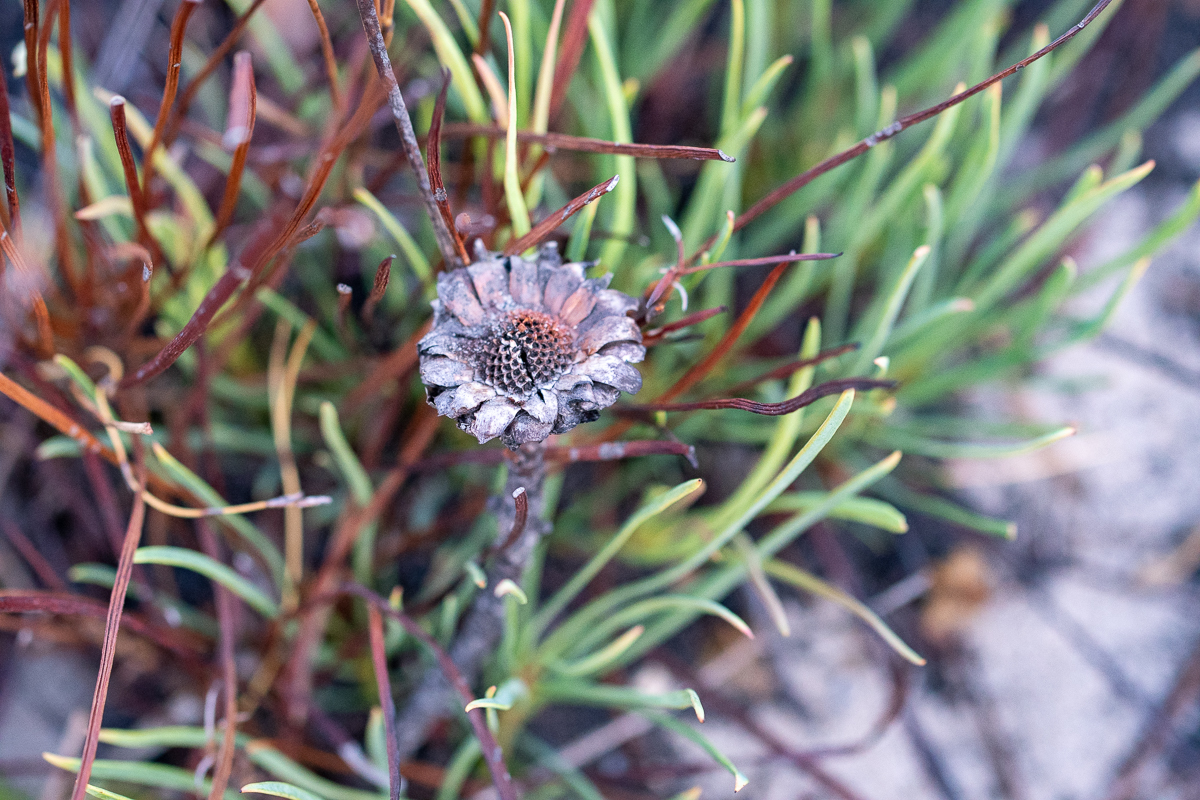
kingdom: Plantae
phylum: Tracheophyta
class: Magnoliopsida
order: Proteales
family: Proteaceae
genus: Protea
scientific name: Protea angustata
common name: Kleinmond sugarbush
